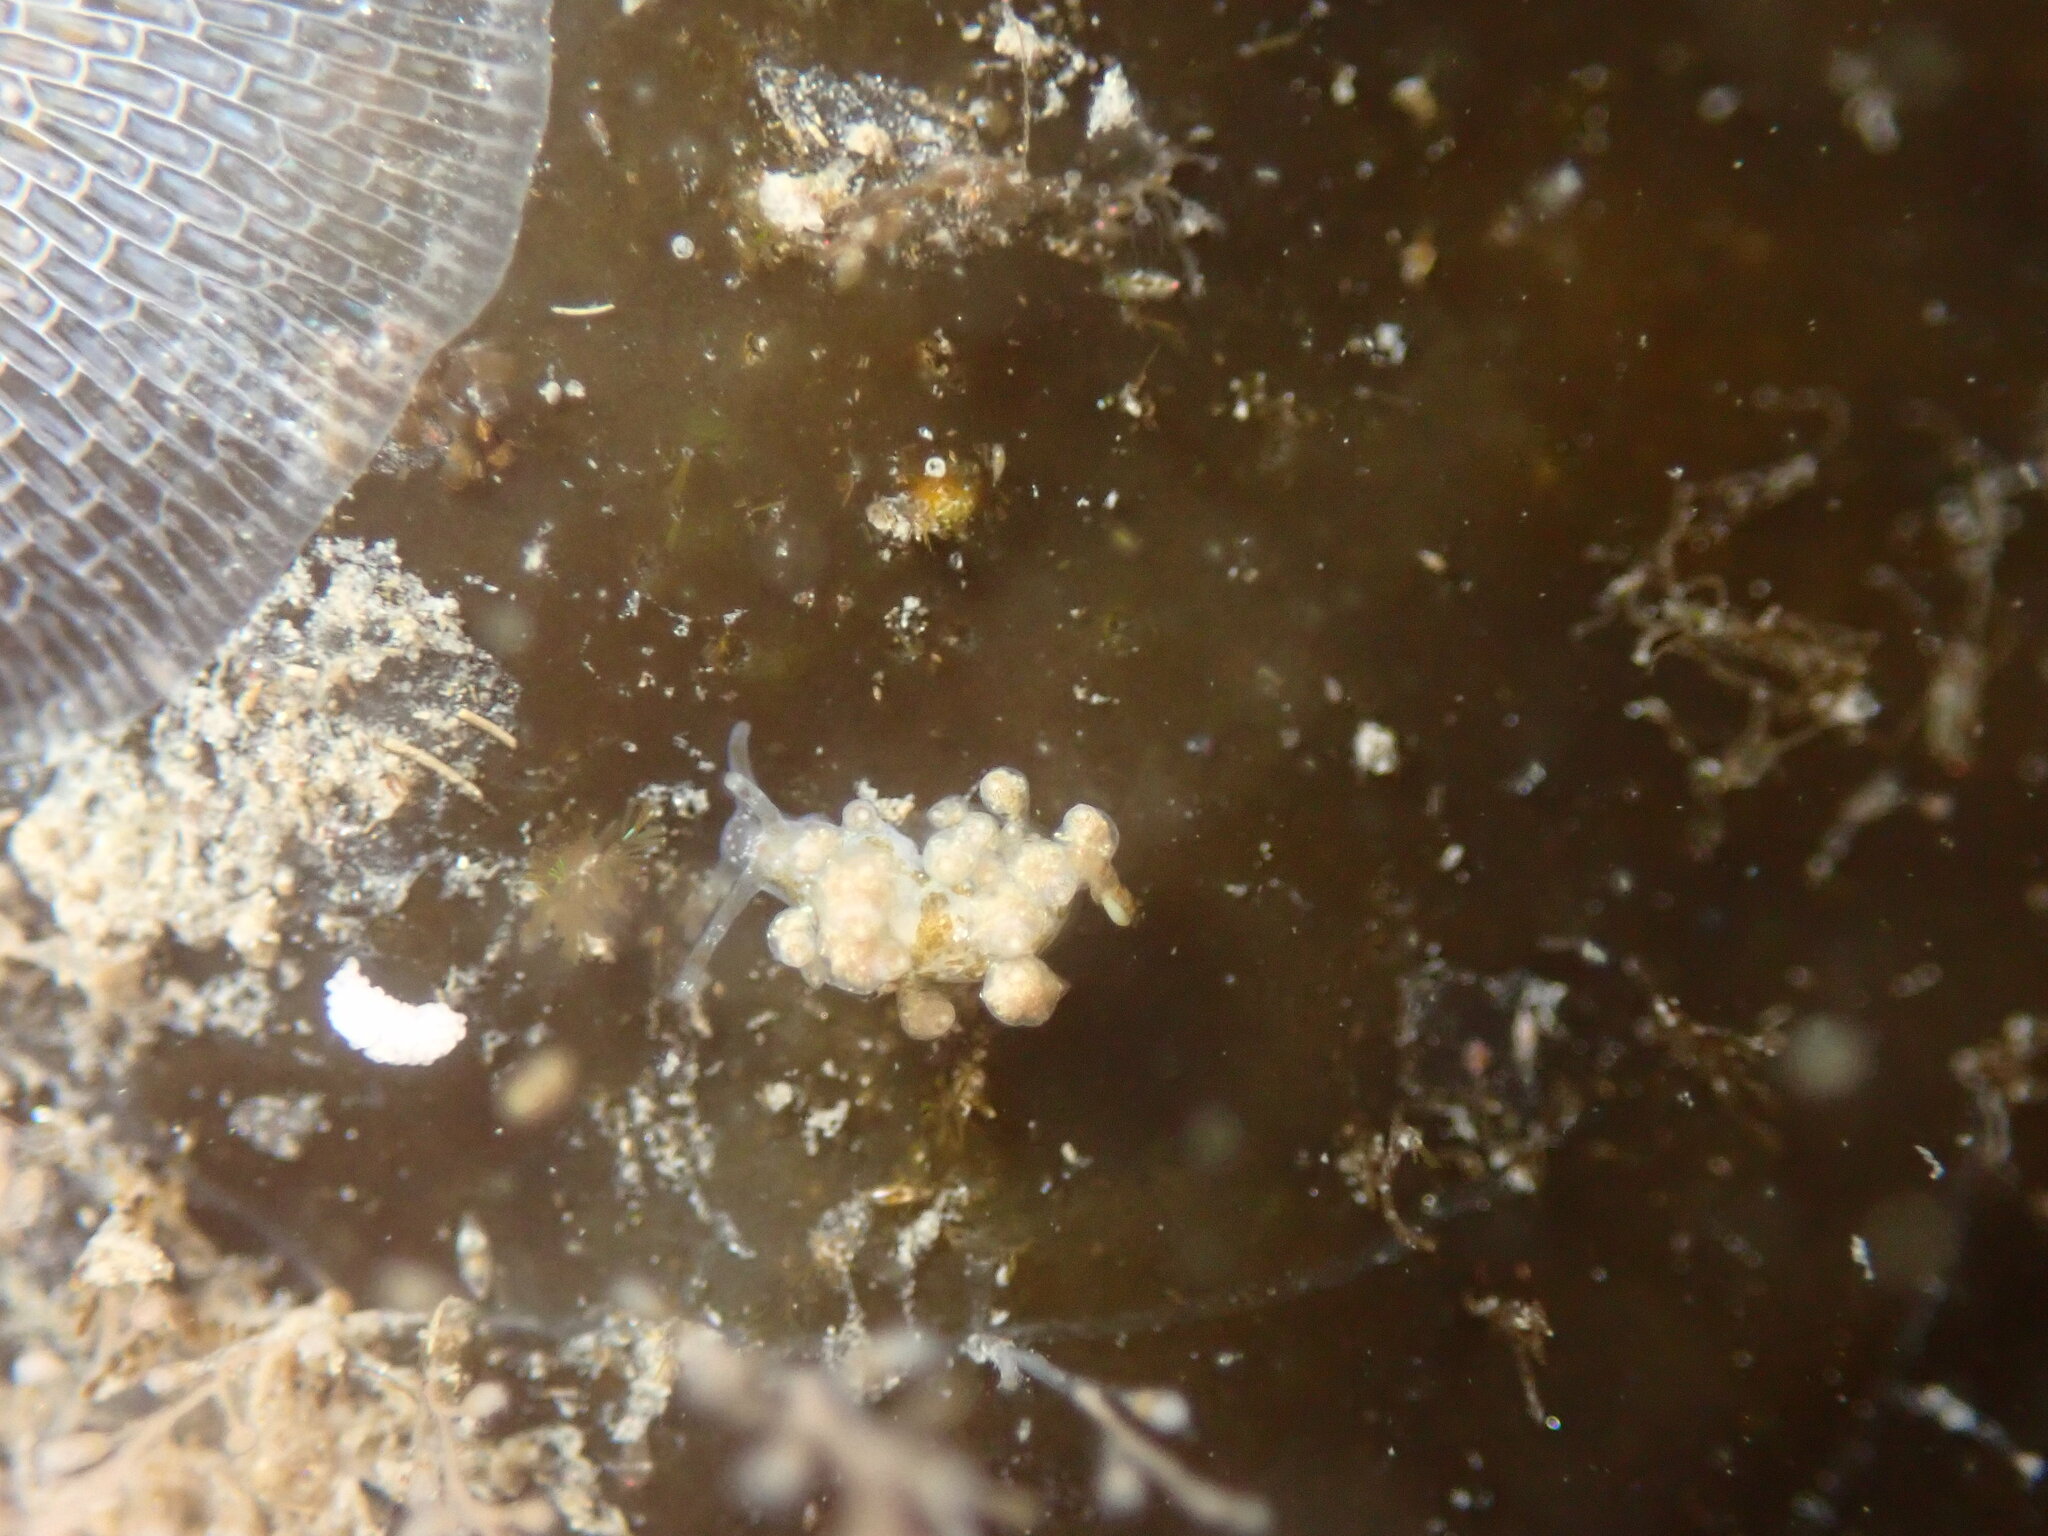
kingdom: Animalia
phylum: Mollusca
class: Gastropoda
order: Nudibranchia
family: Eubranchidae
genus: Eubranchus
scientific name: Eubranchus rustyus
